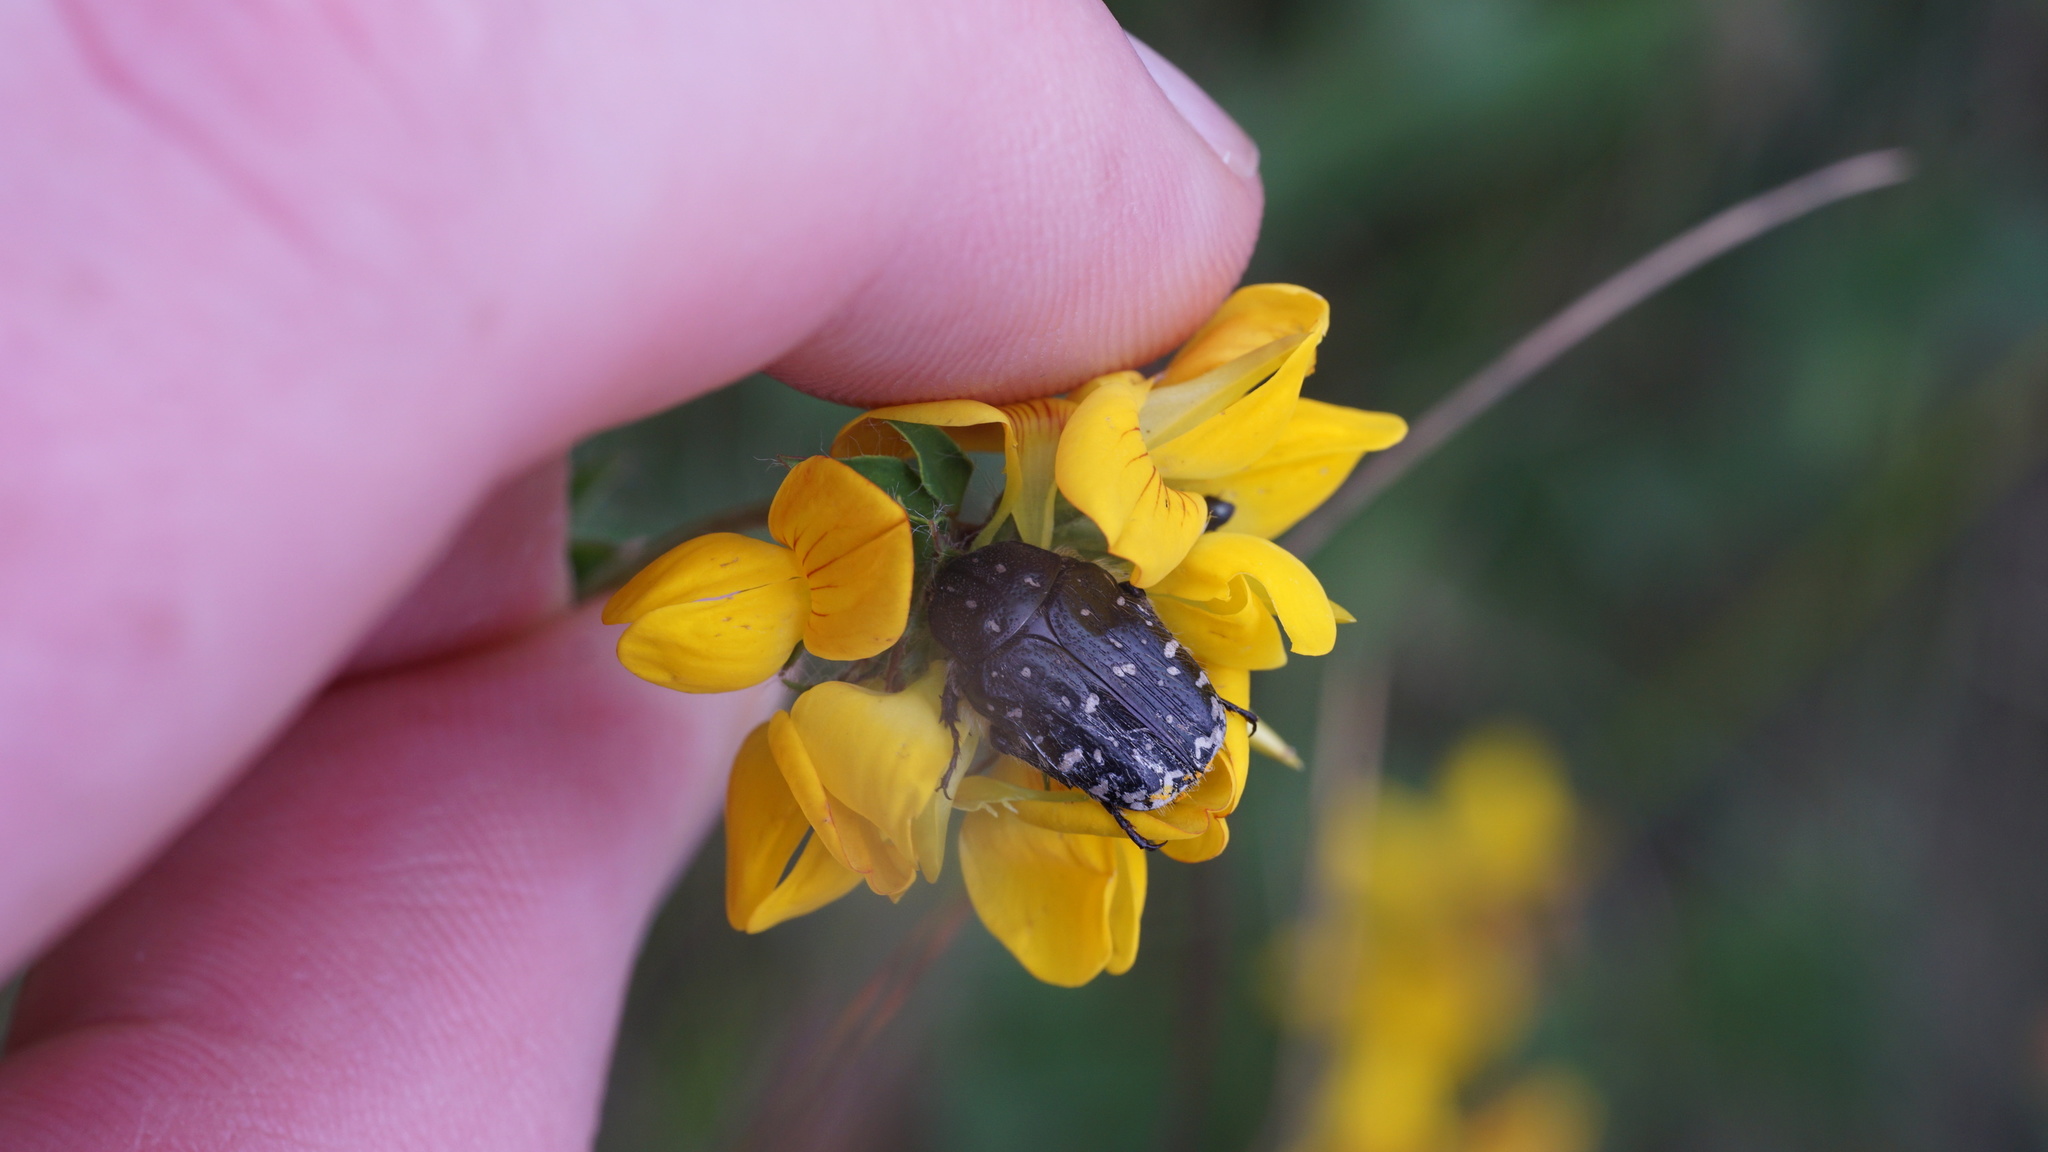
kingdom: Animalia
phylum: Arthropoda
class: Insecta
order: Coleoptera
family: Scarabaeidae
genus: Oxythyrea
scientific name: Oxythyrea funesta
